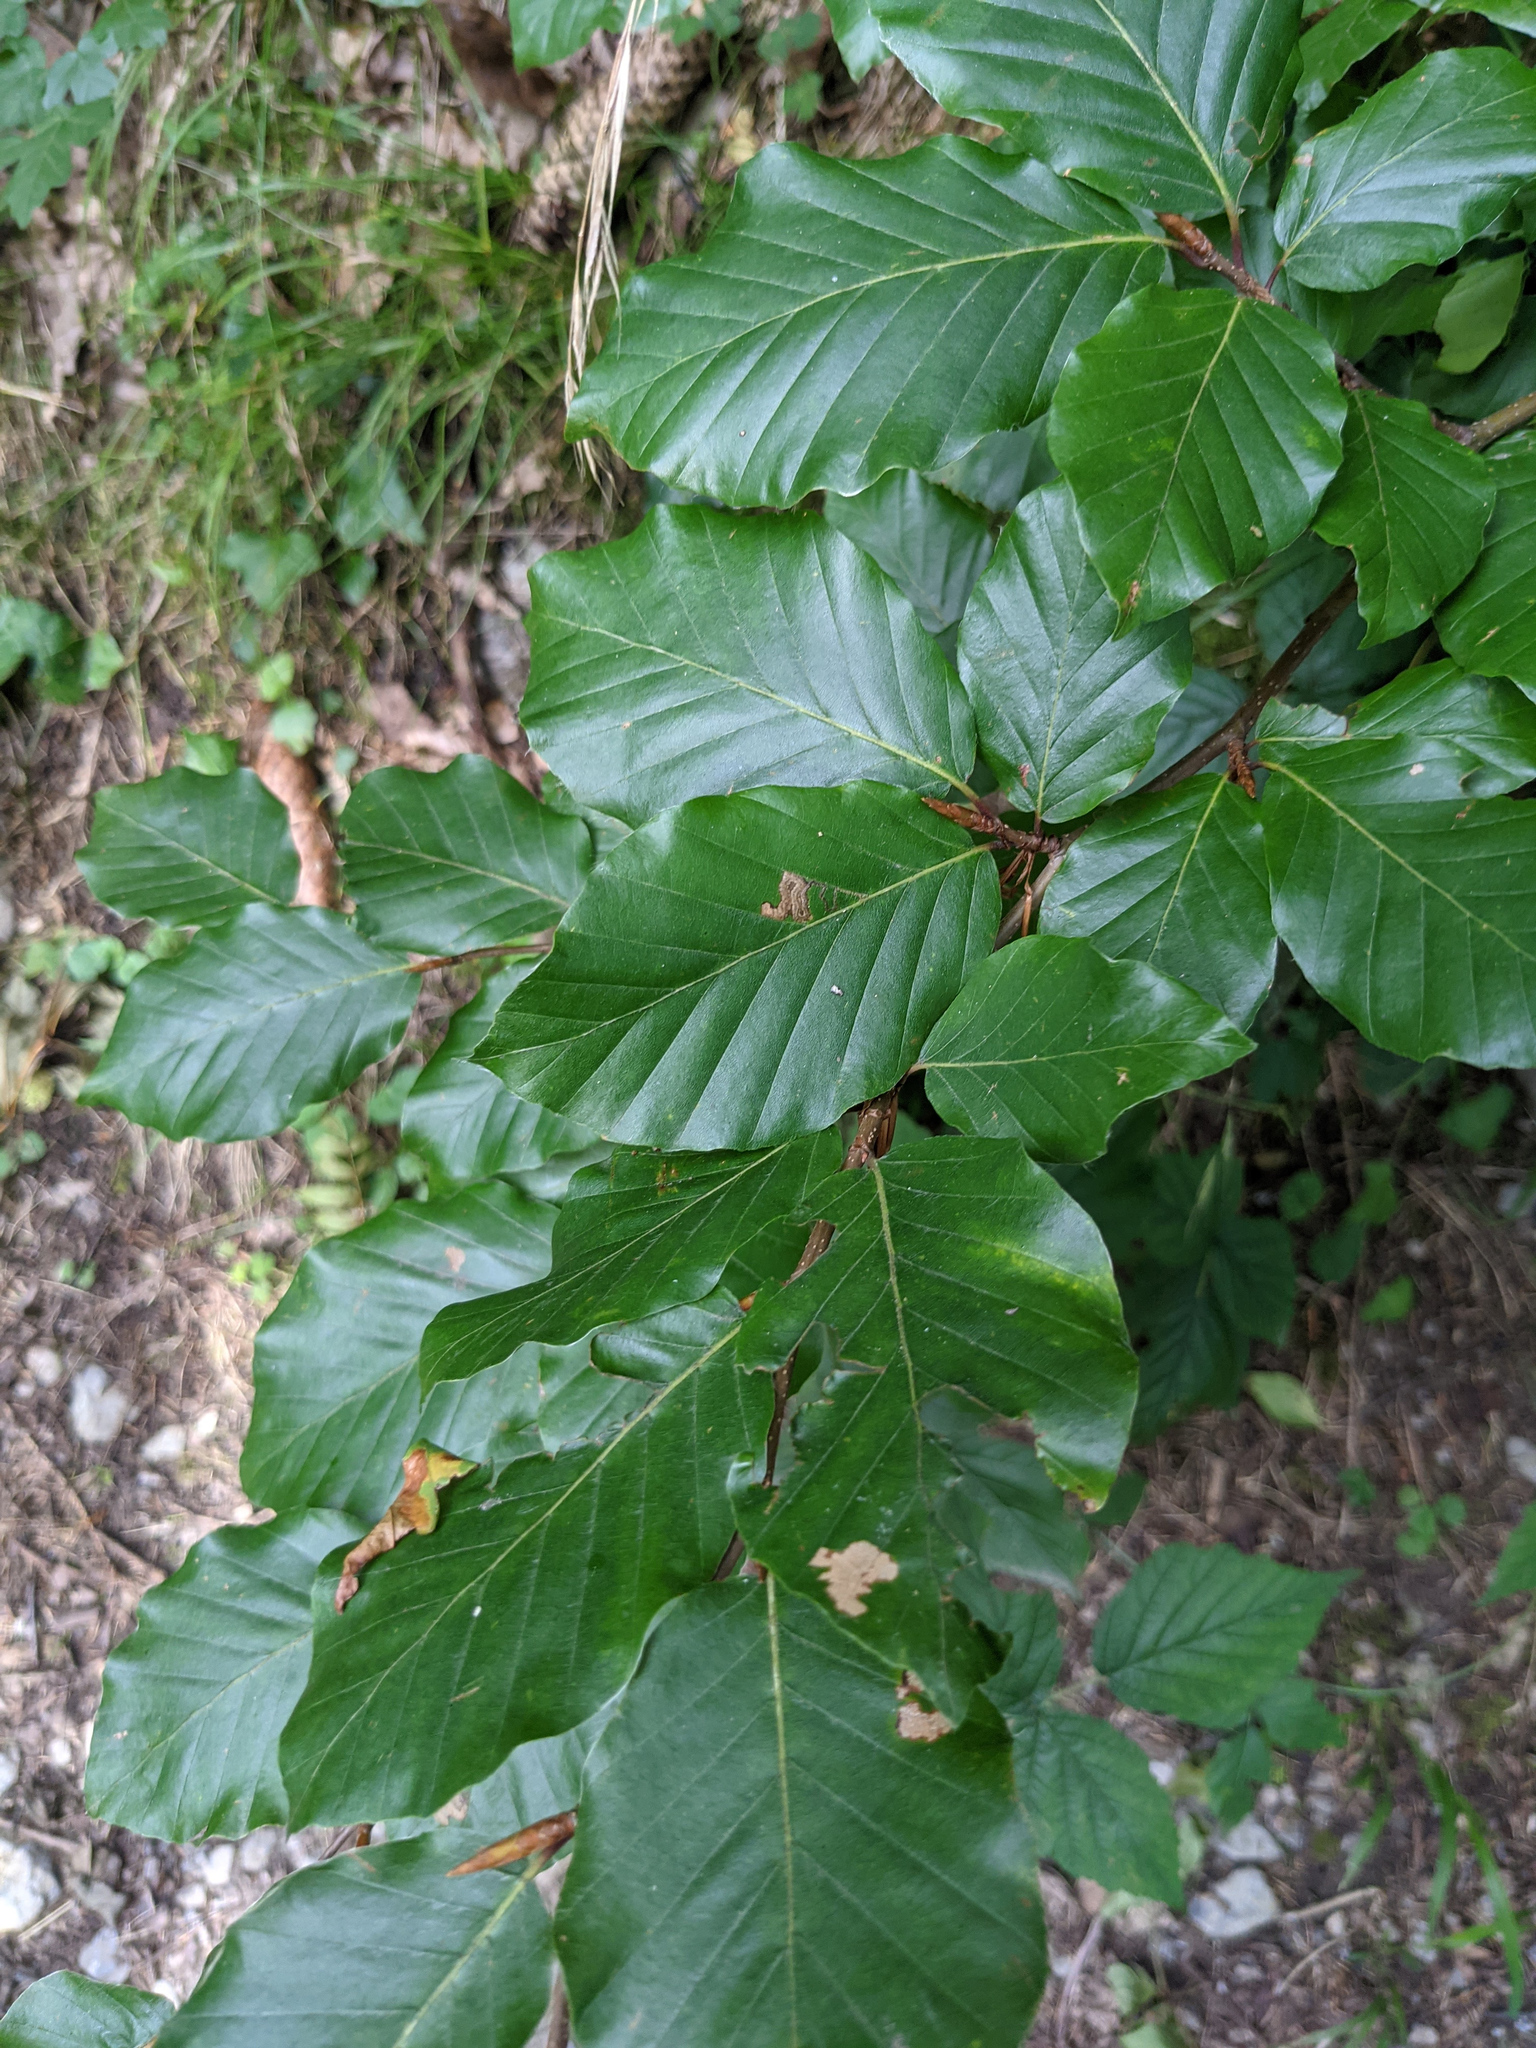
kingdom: Plantae
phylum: Tracheophyta
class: Magnoliopsida
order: Fagales
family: Fagaceae
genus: Fagus
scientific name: Fagus sylvatica
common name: Beech
